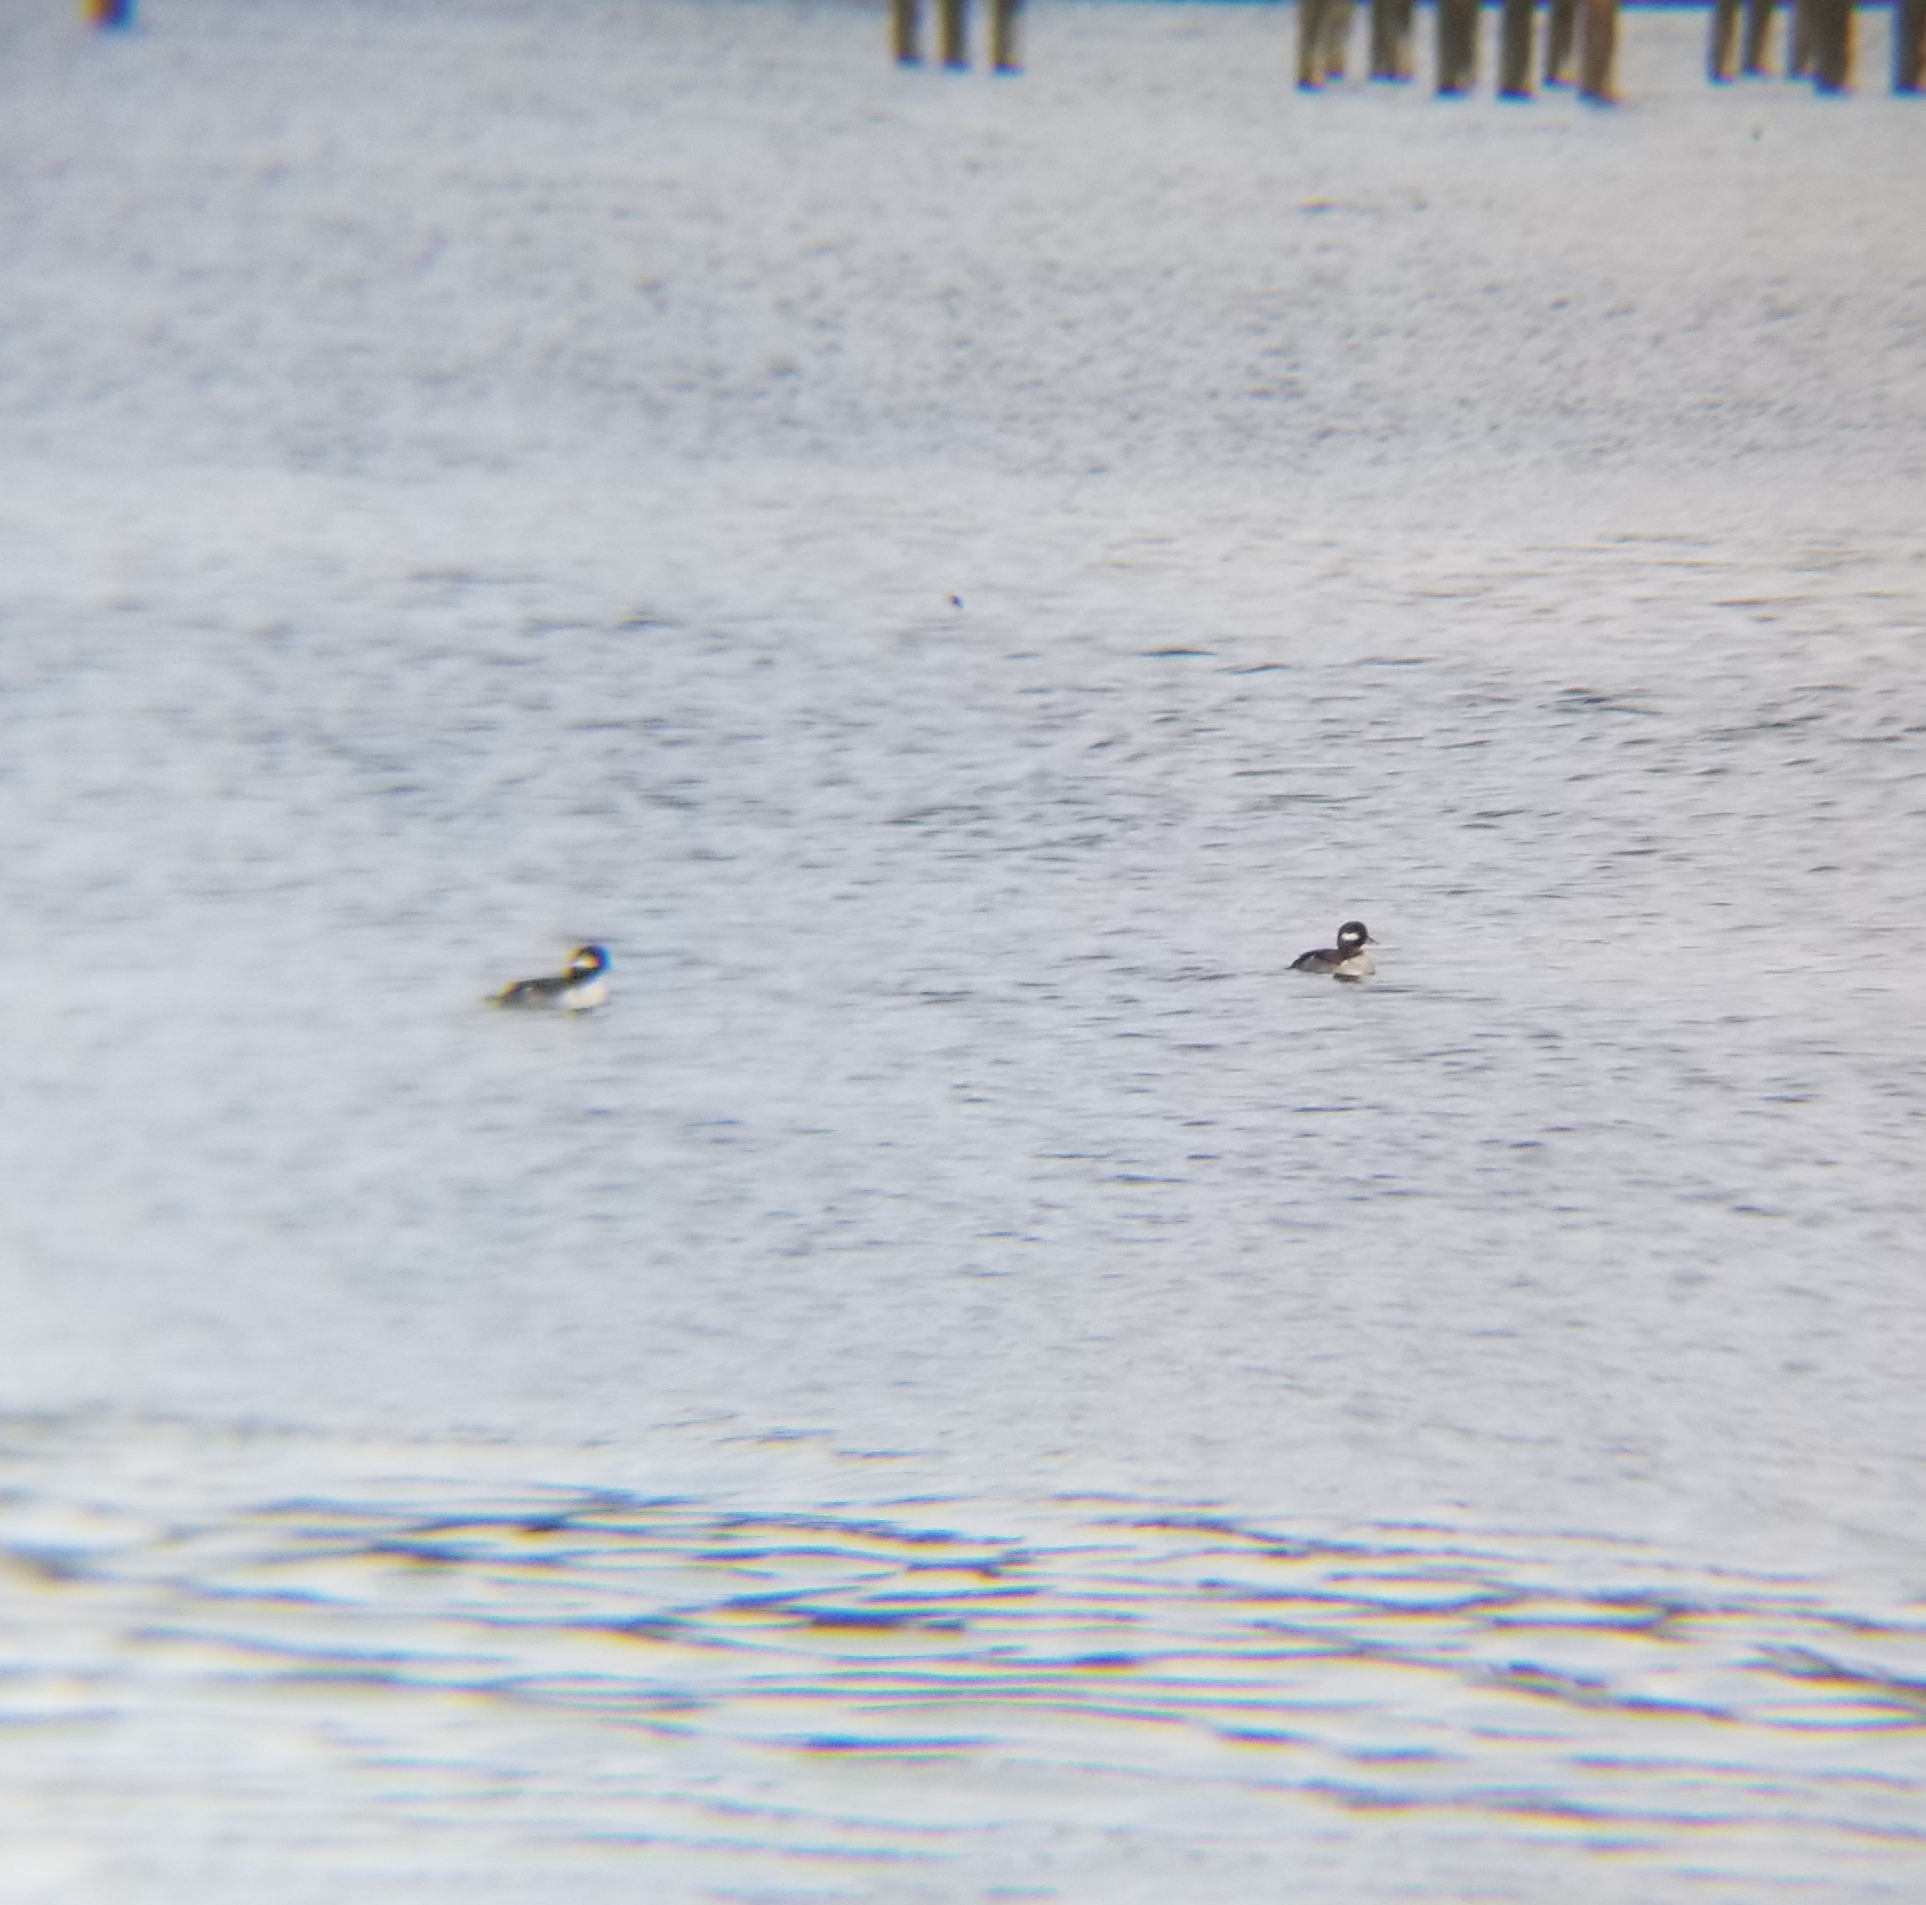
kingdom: Animalia
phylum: Chordata
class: Aves
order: Anseriformes
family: Anatidae
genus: Bucephala
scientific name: Bucephala albeola
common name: Bufflehead
